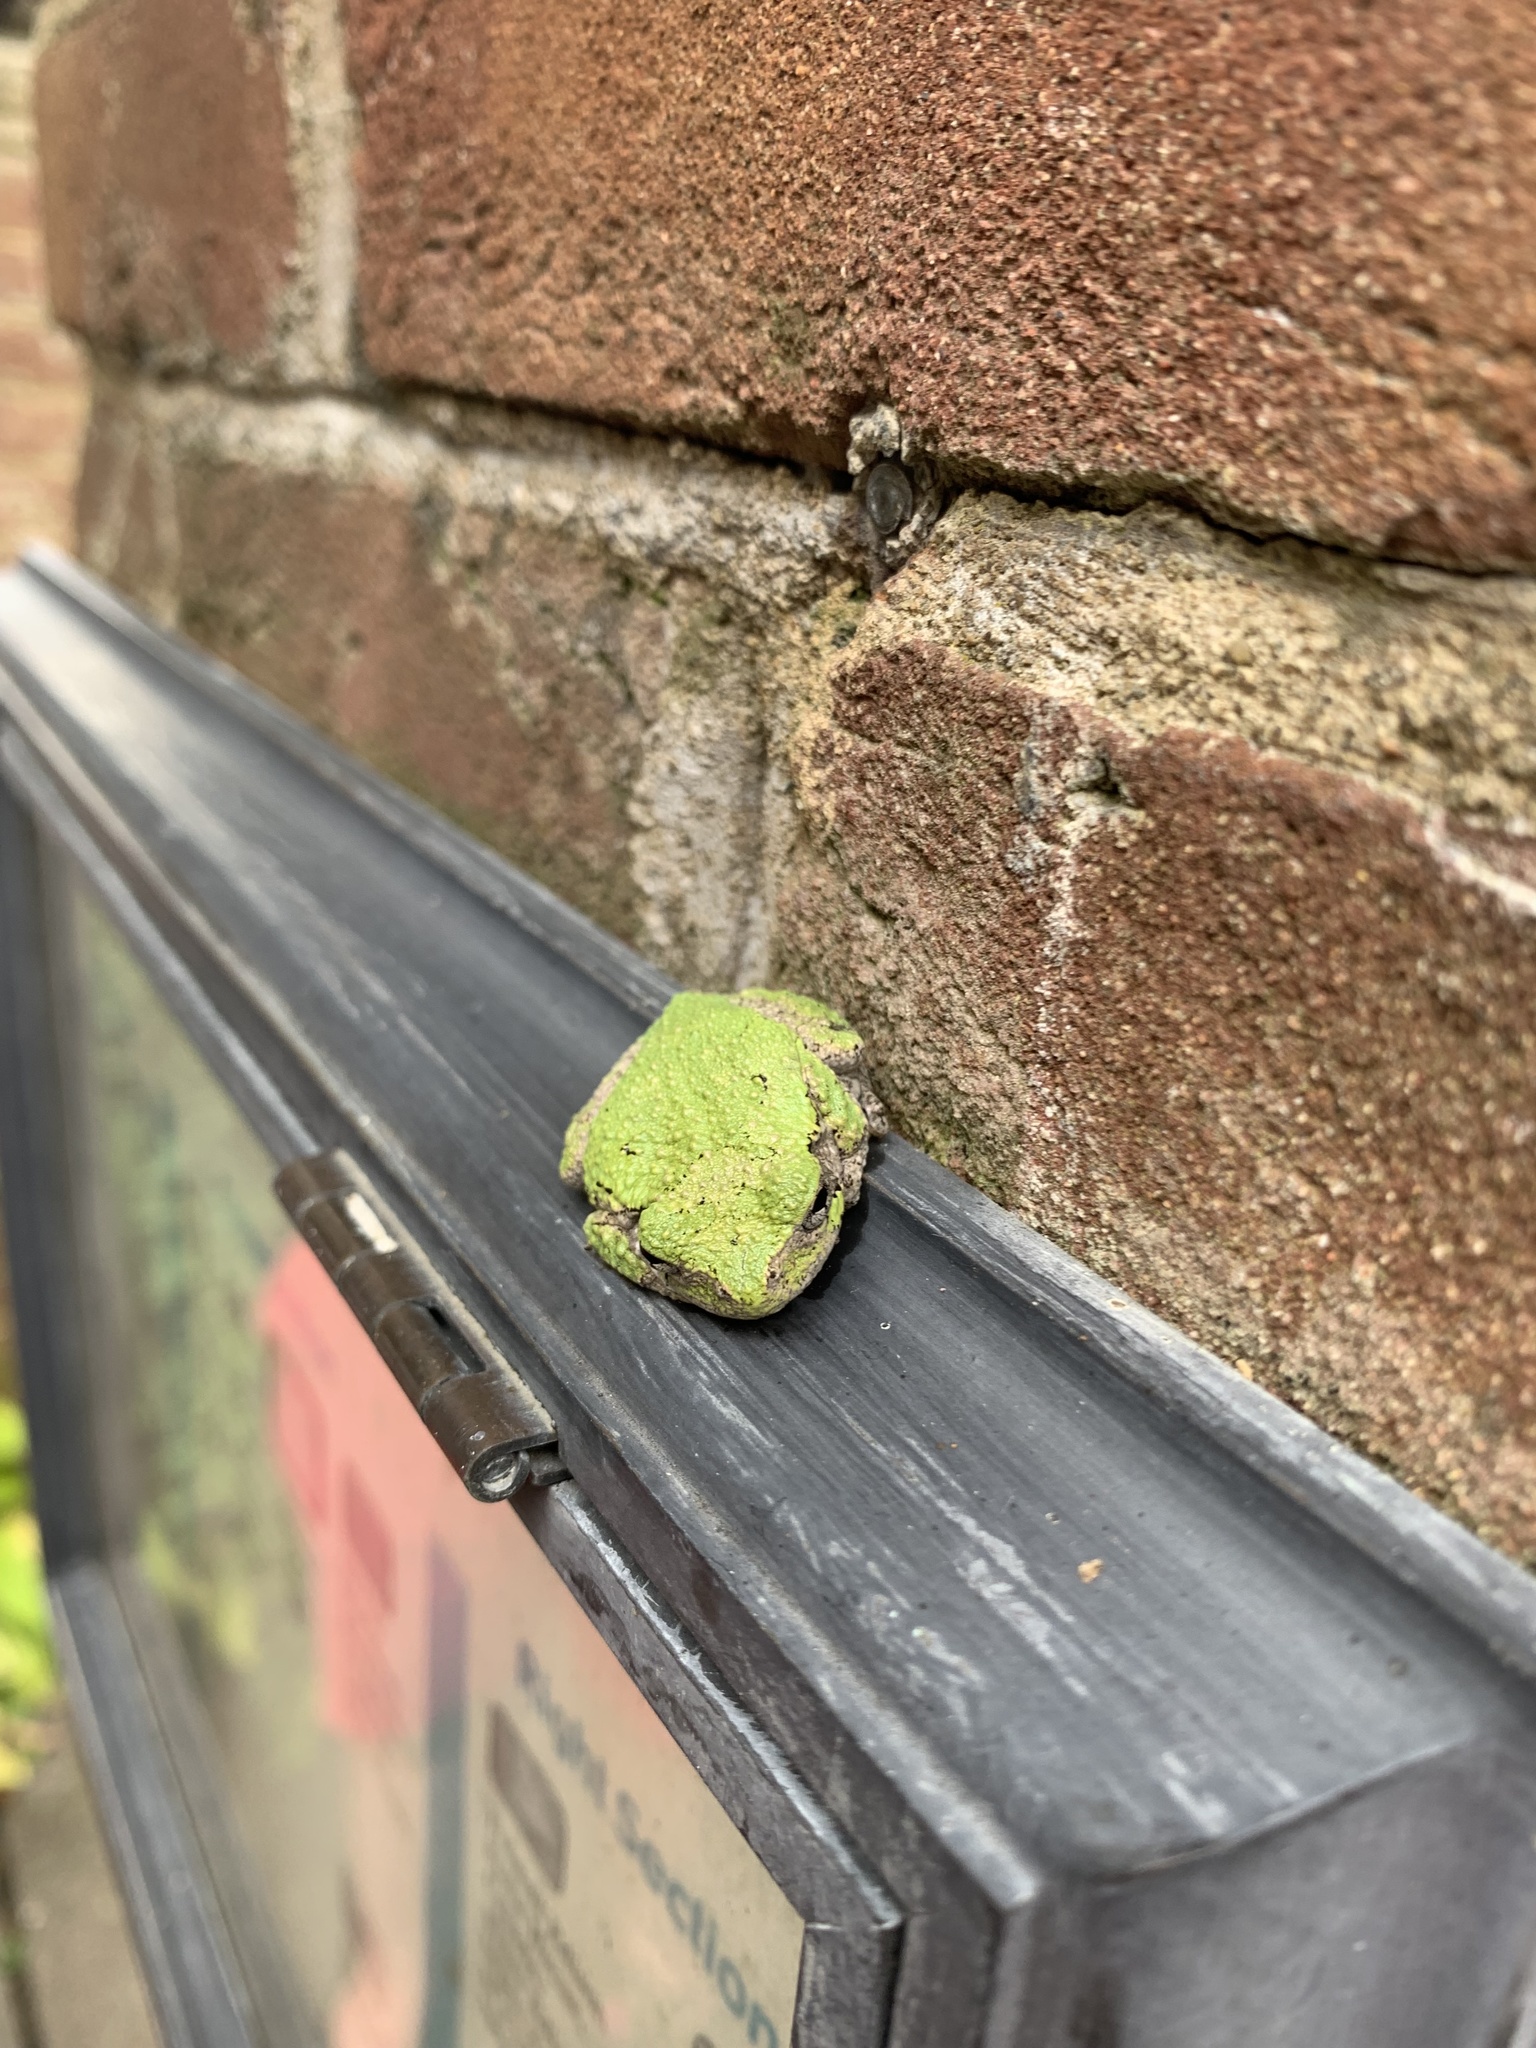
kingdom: Animalia
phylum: Chordata
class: Amphibia
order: Anura
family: Hylidae
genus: Dryophytes
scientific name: Dryophytes chrysoscelis
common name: Cope's gray treefrog
